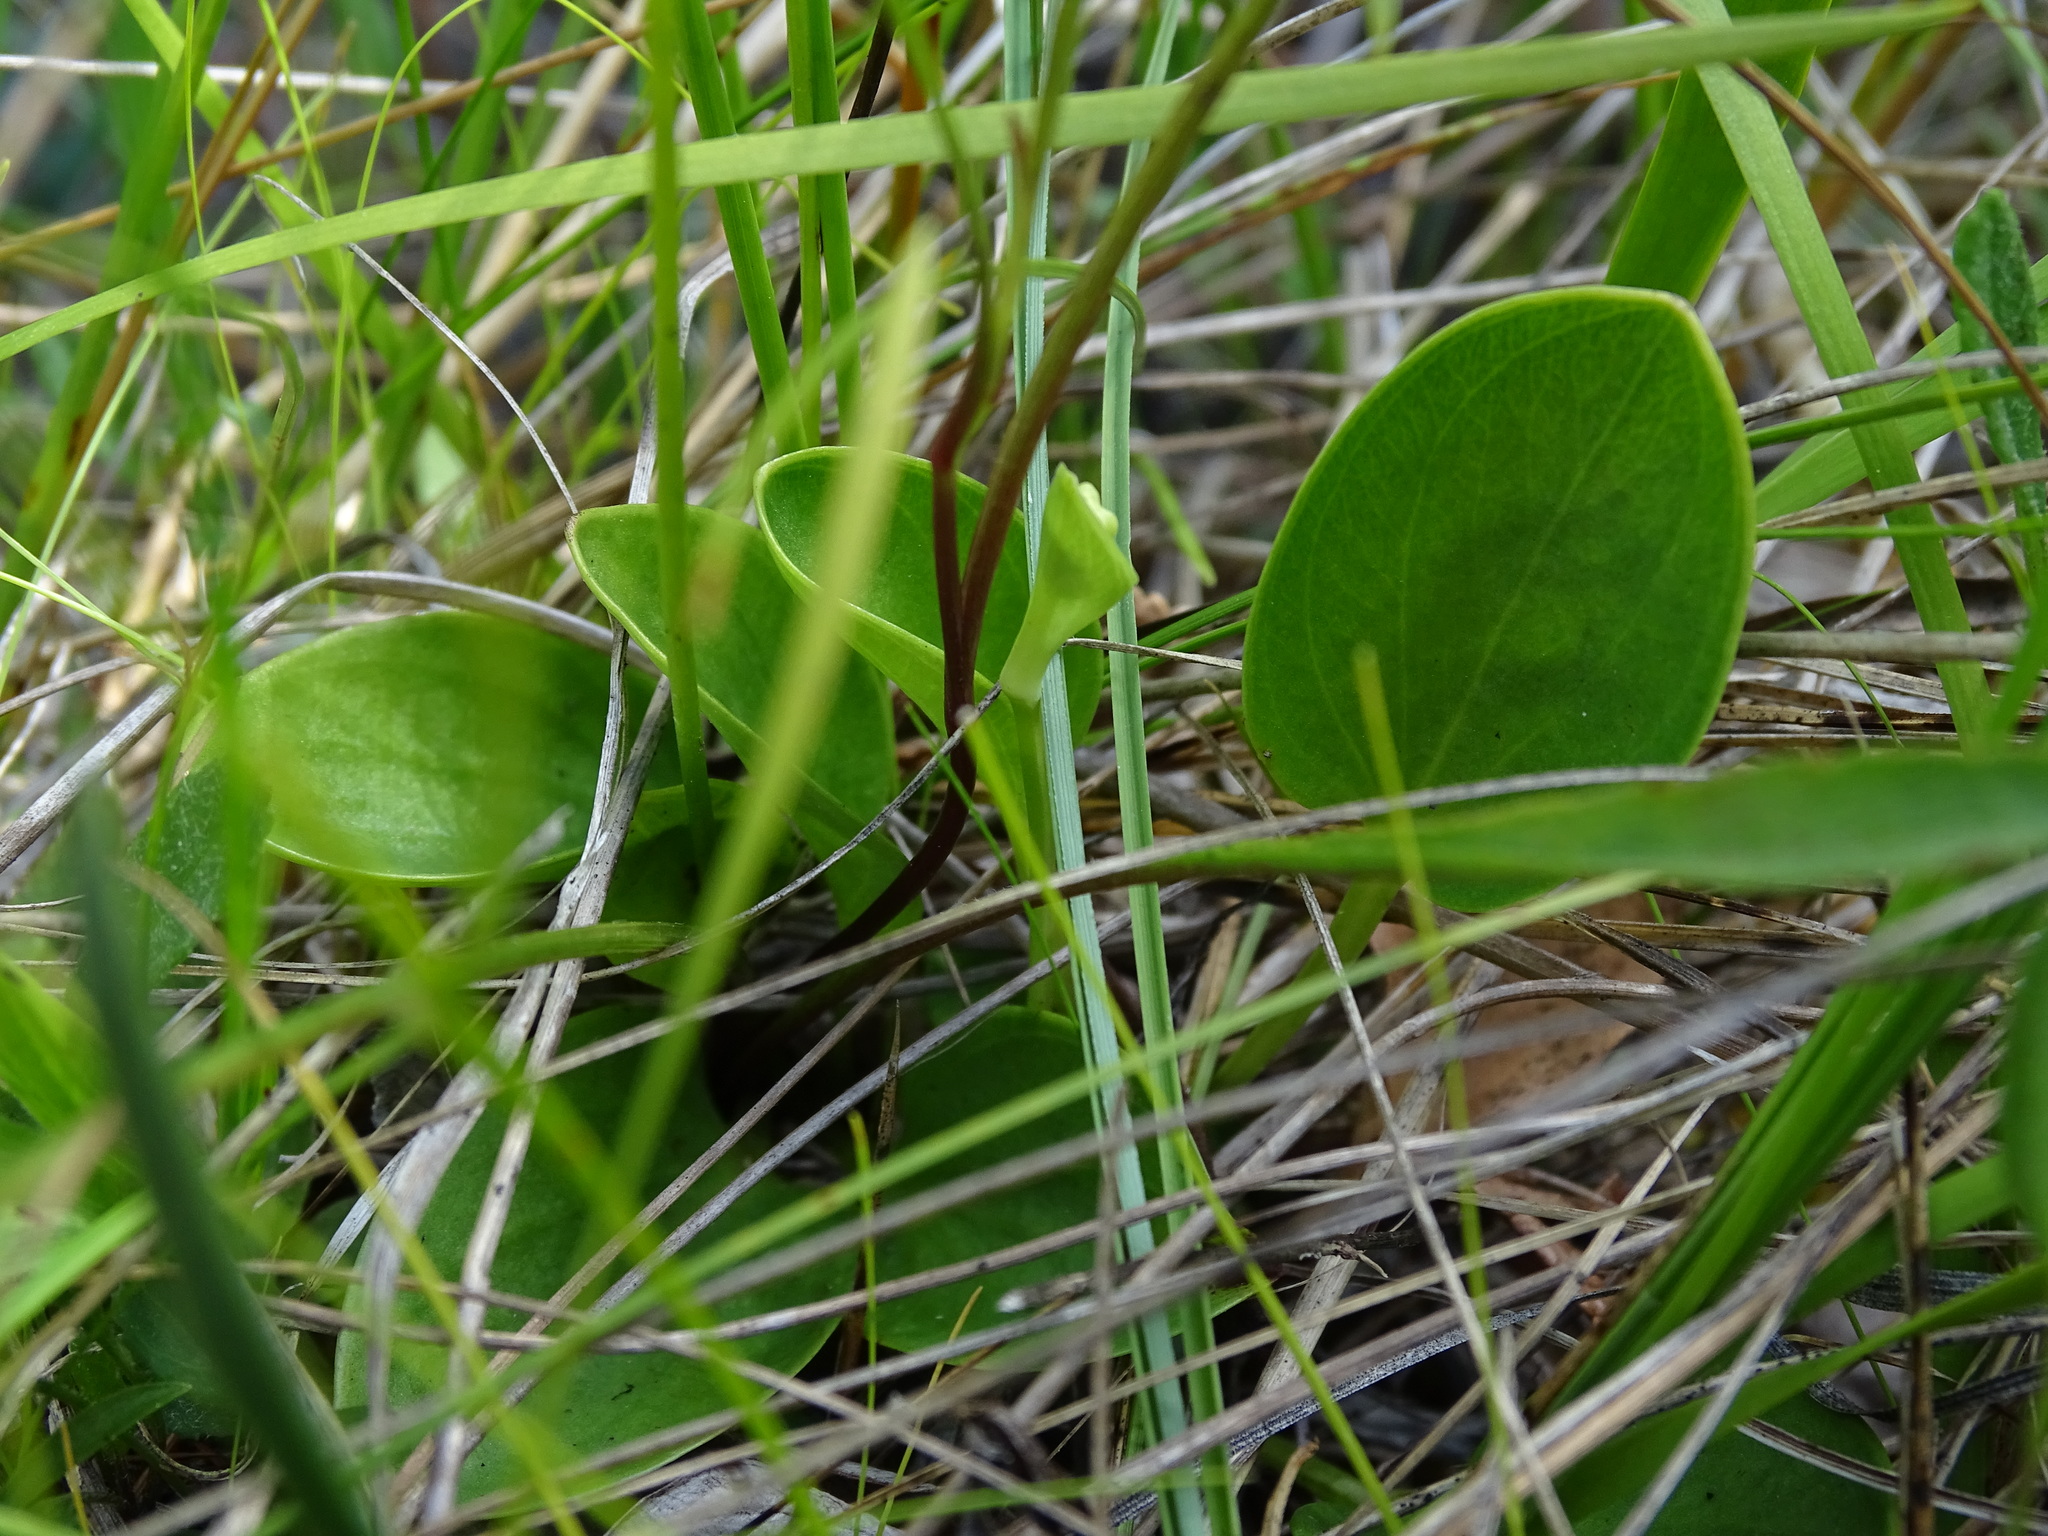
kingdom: Plantae
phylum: Tracheophyta
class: Magnoliopsida
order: Celastrales
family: Parnassiaceae
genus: Parnassia
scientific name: Parnassia glauca
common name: American grass-of-parnassus
